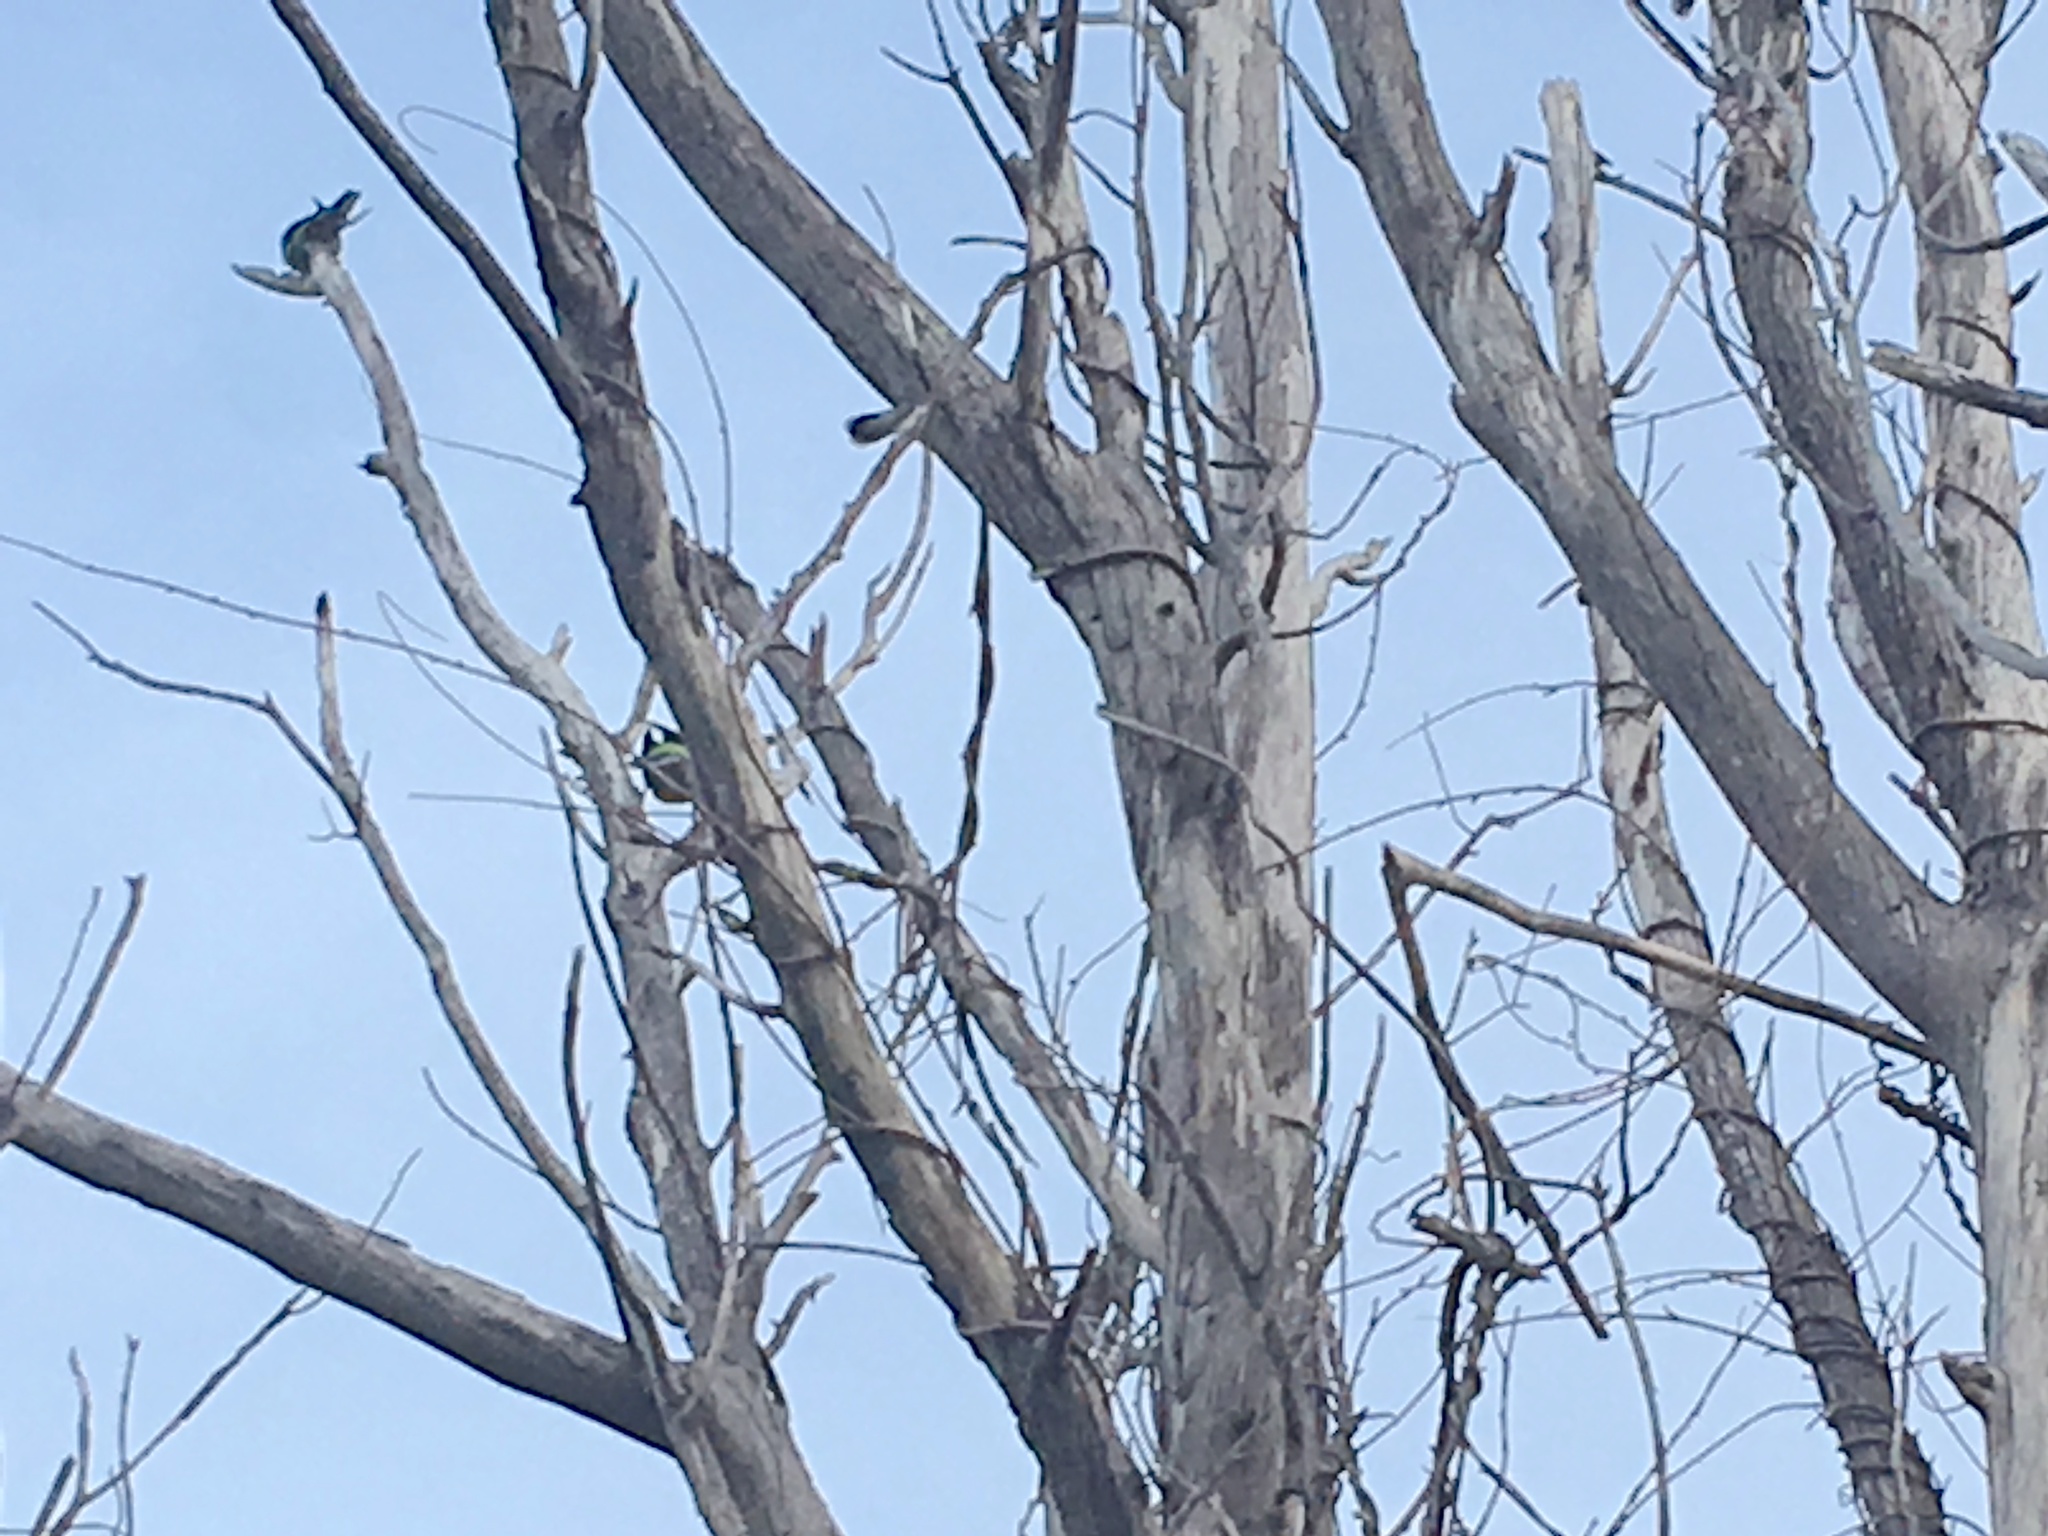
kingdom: Animalia
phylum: Chordata
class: Aves
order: Psittaciformes
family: Psittacidae
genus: Platycercus
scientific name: Platycercus eximius
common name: Eastern rosella
